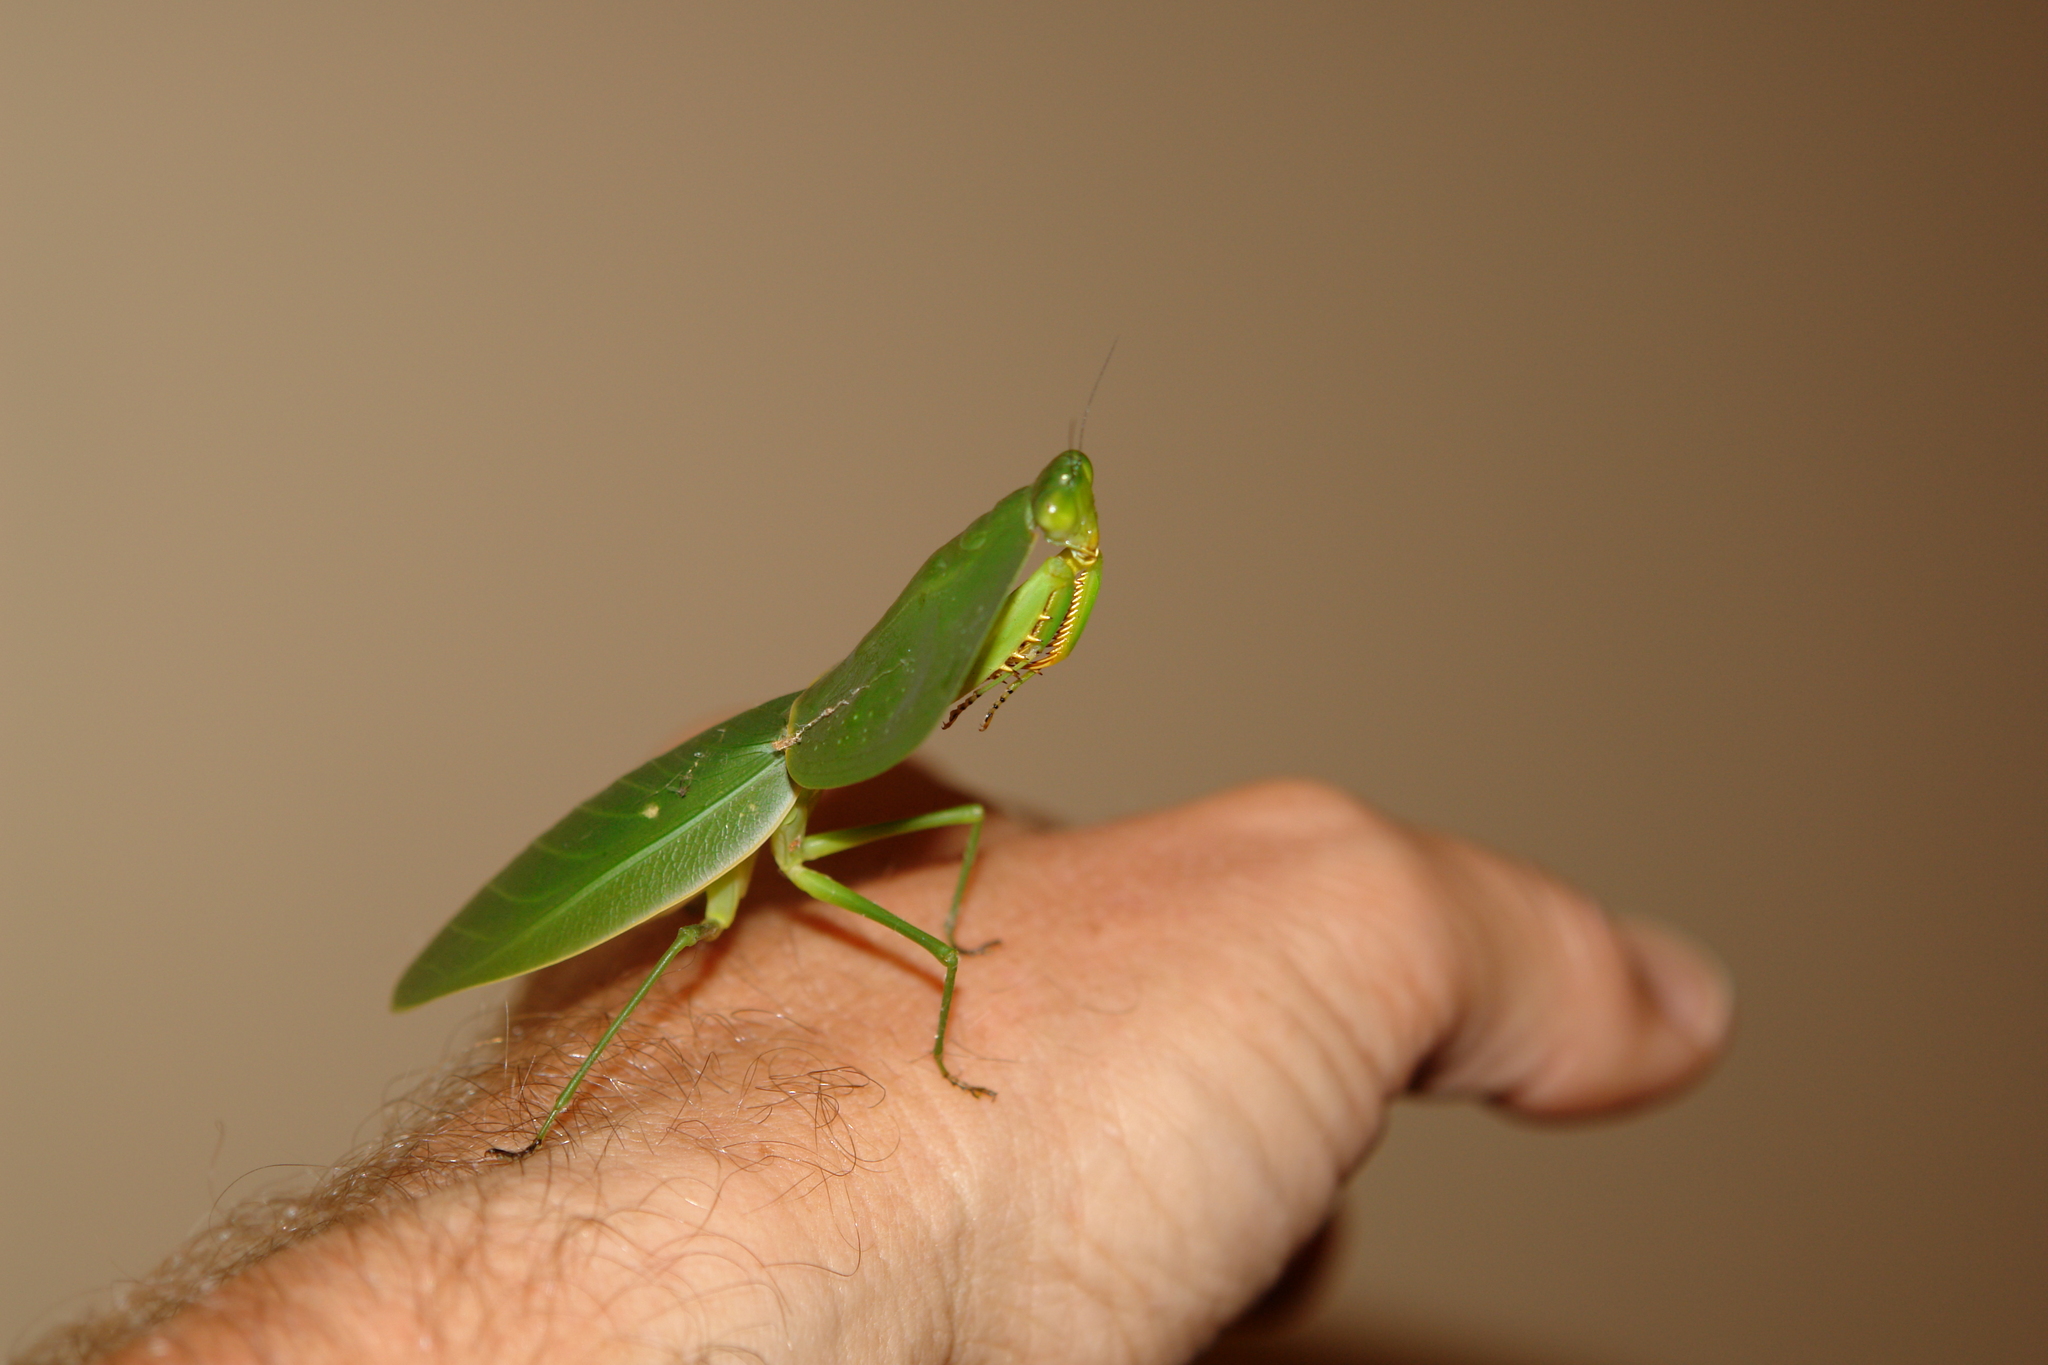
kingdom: Animalia
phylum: Arthropoda
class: Insecta
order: Mantodea
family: Mantidae
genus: Choeradodis
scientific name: Choeradodis rhombicollis
